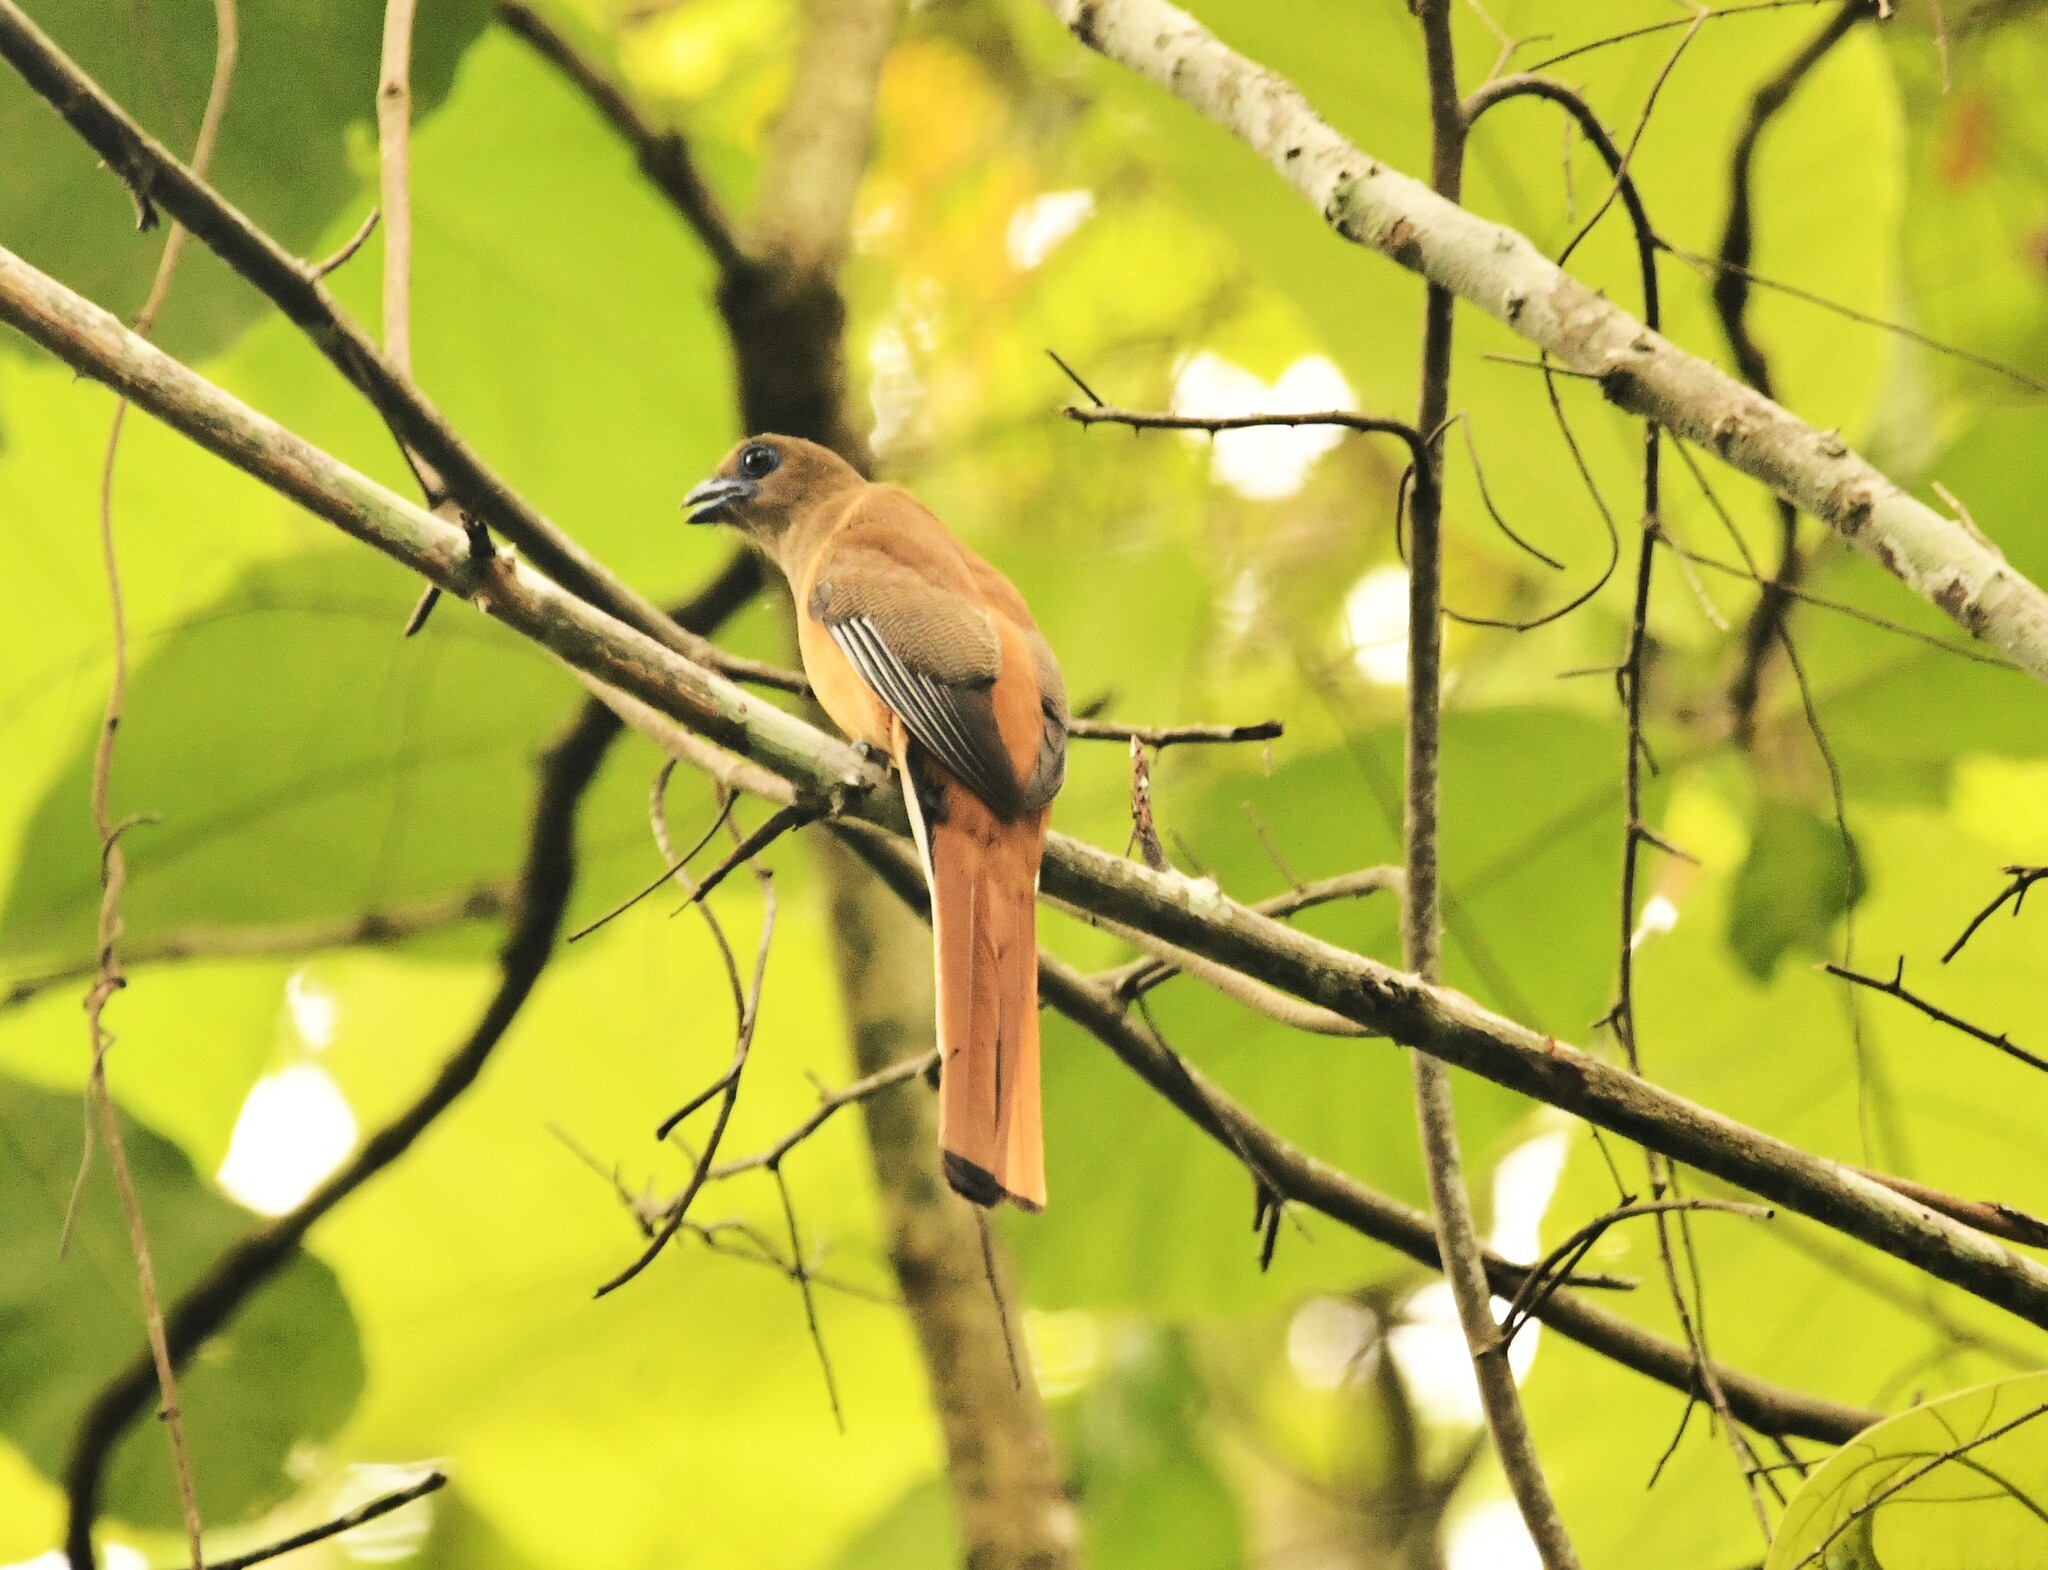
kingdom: Animalia
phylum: Chordata
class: Aves
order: Trogoniformes
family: Trogonidae
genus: Harpactes
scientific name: Harpactes fasciatus
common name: Malabar trogon
